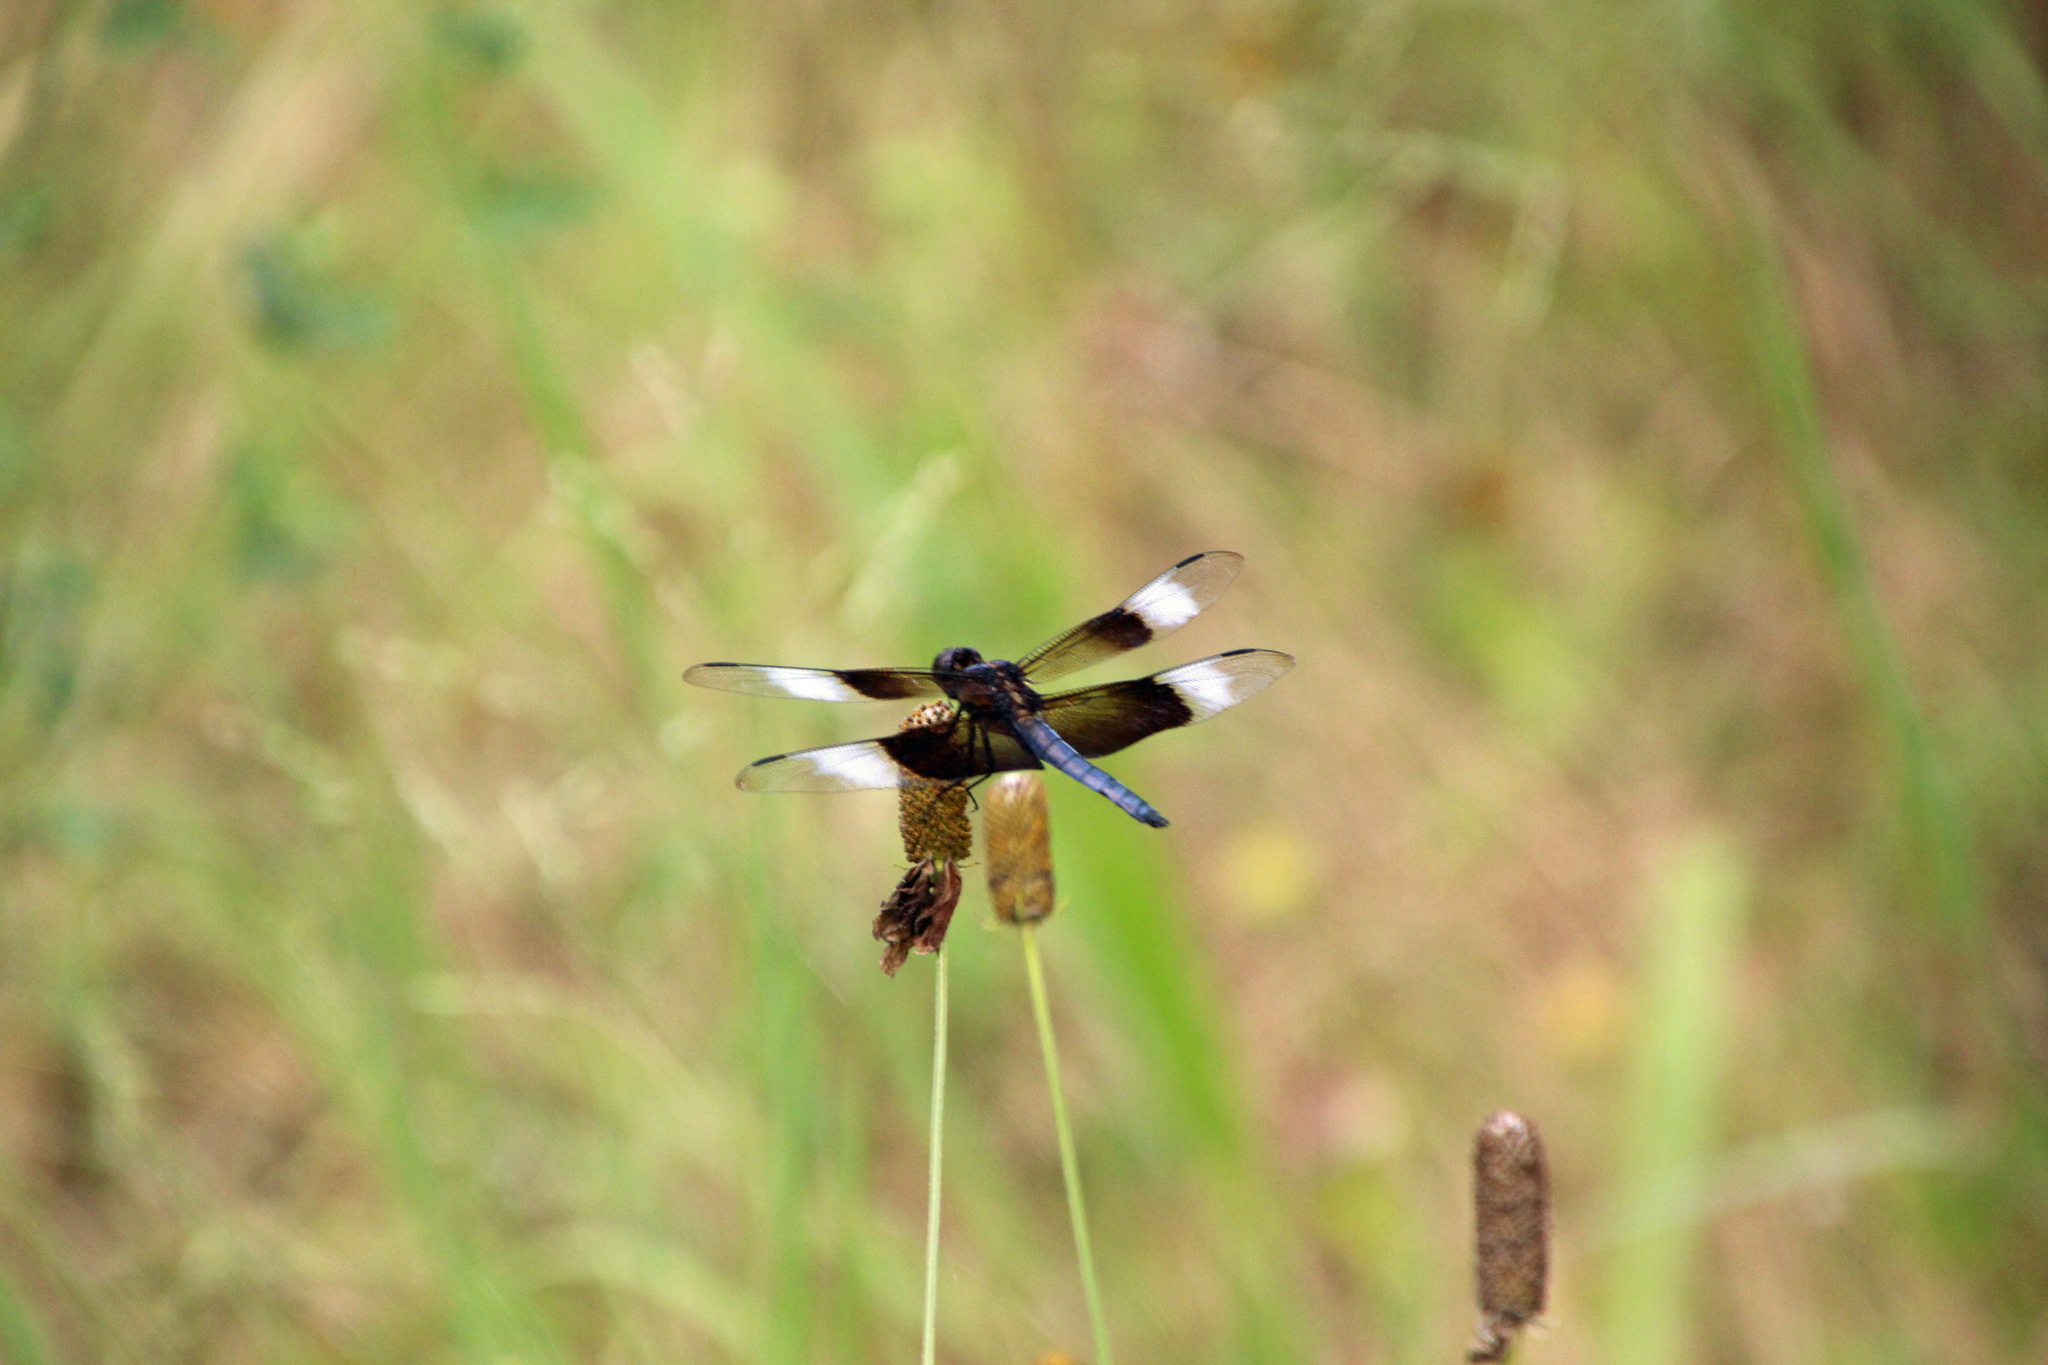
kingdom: Animalia
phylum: Arthropoda
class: Insecta
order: Odonata
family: Libellulidae
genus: Libellula
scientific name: Libellula luctuosa
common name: Widow skimmer
